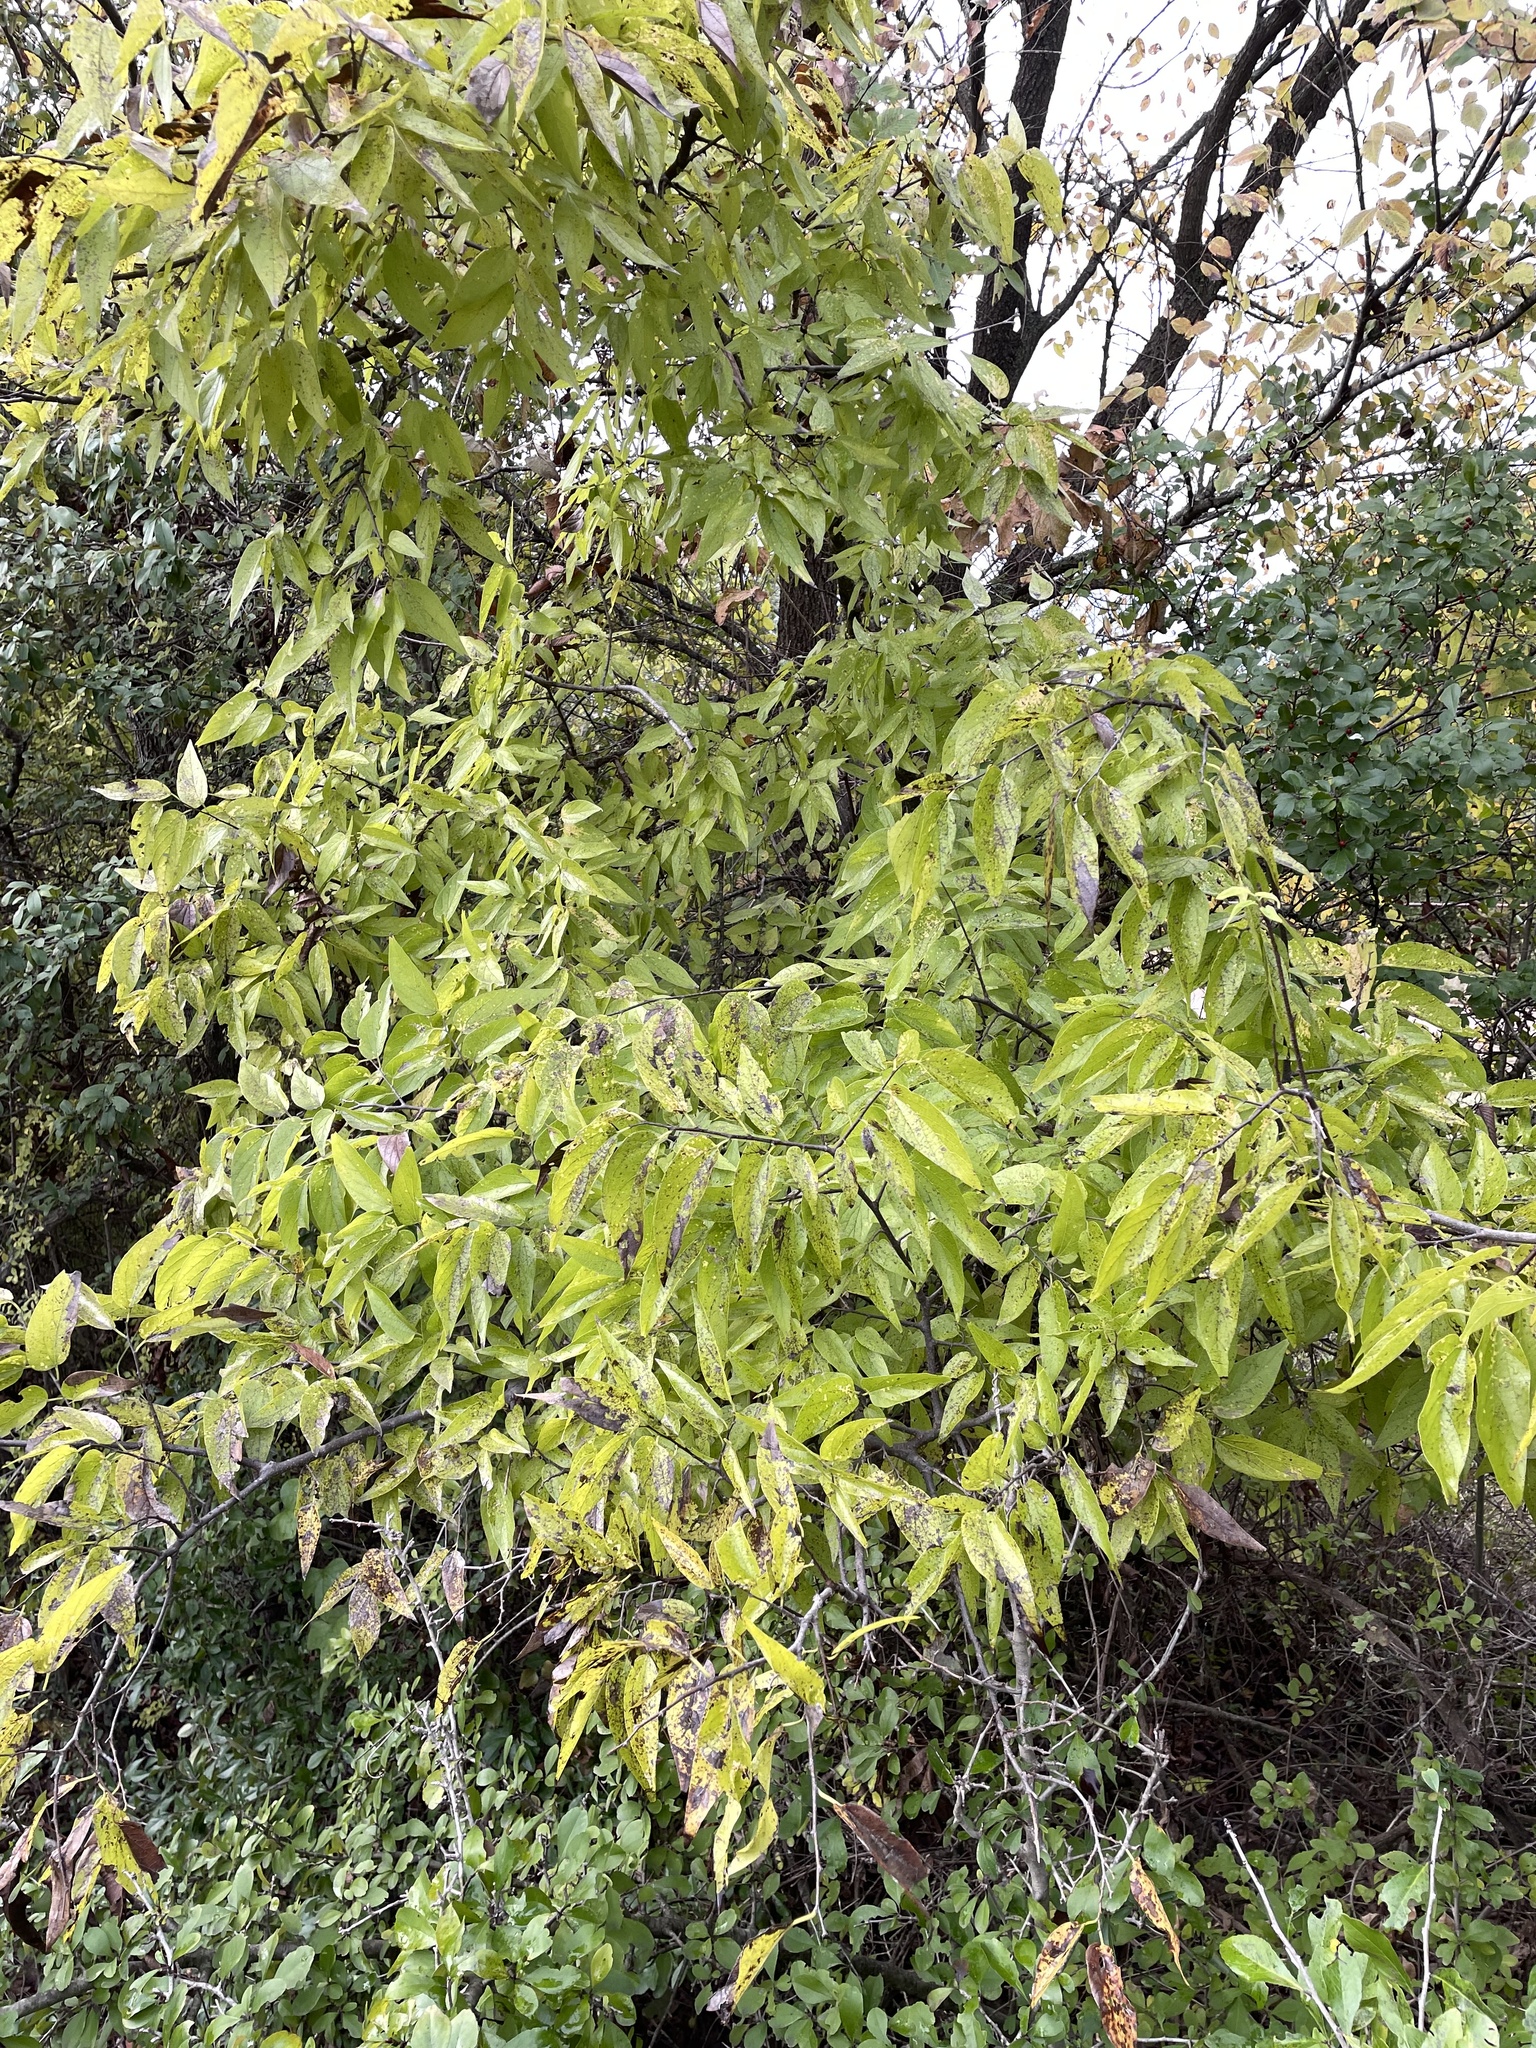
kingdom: Plantae
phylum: Tracheophyta
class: Magnoliopsida
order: Rosales
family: Cannabaceae
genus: Celtis
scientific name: Celtis laevigata
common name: Sugarberry
